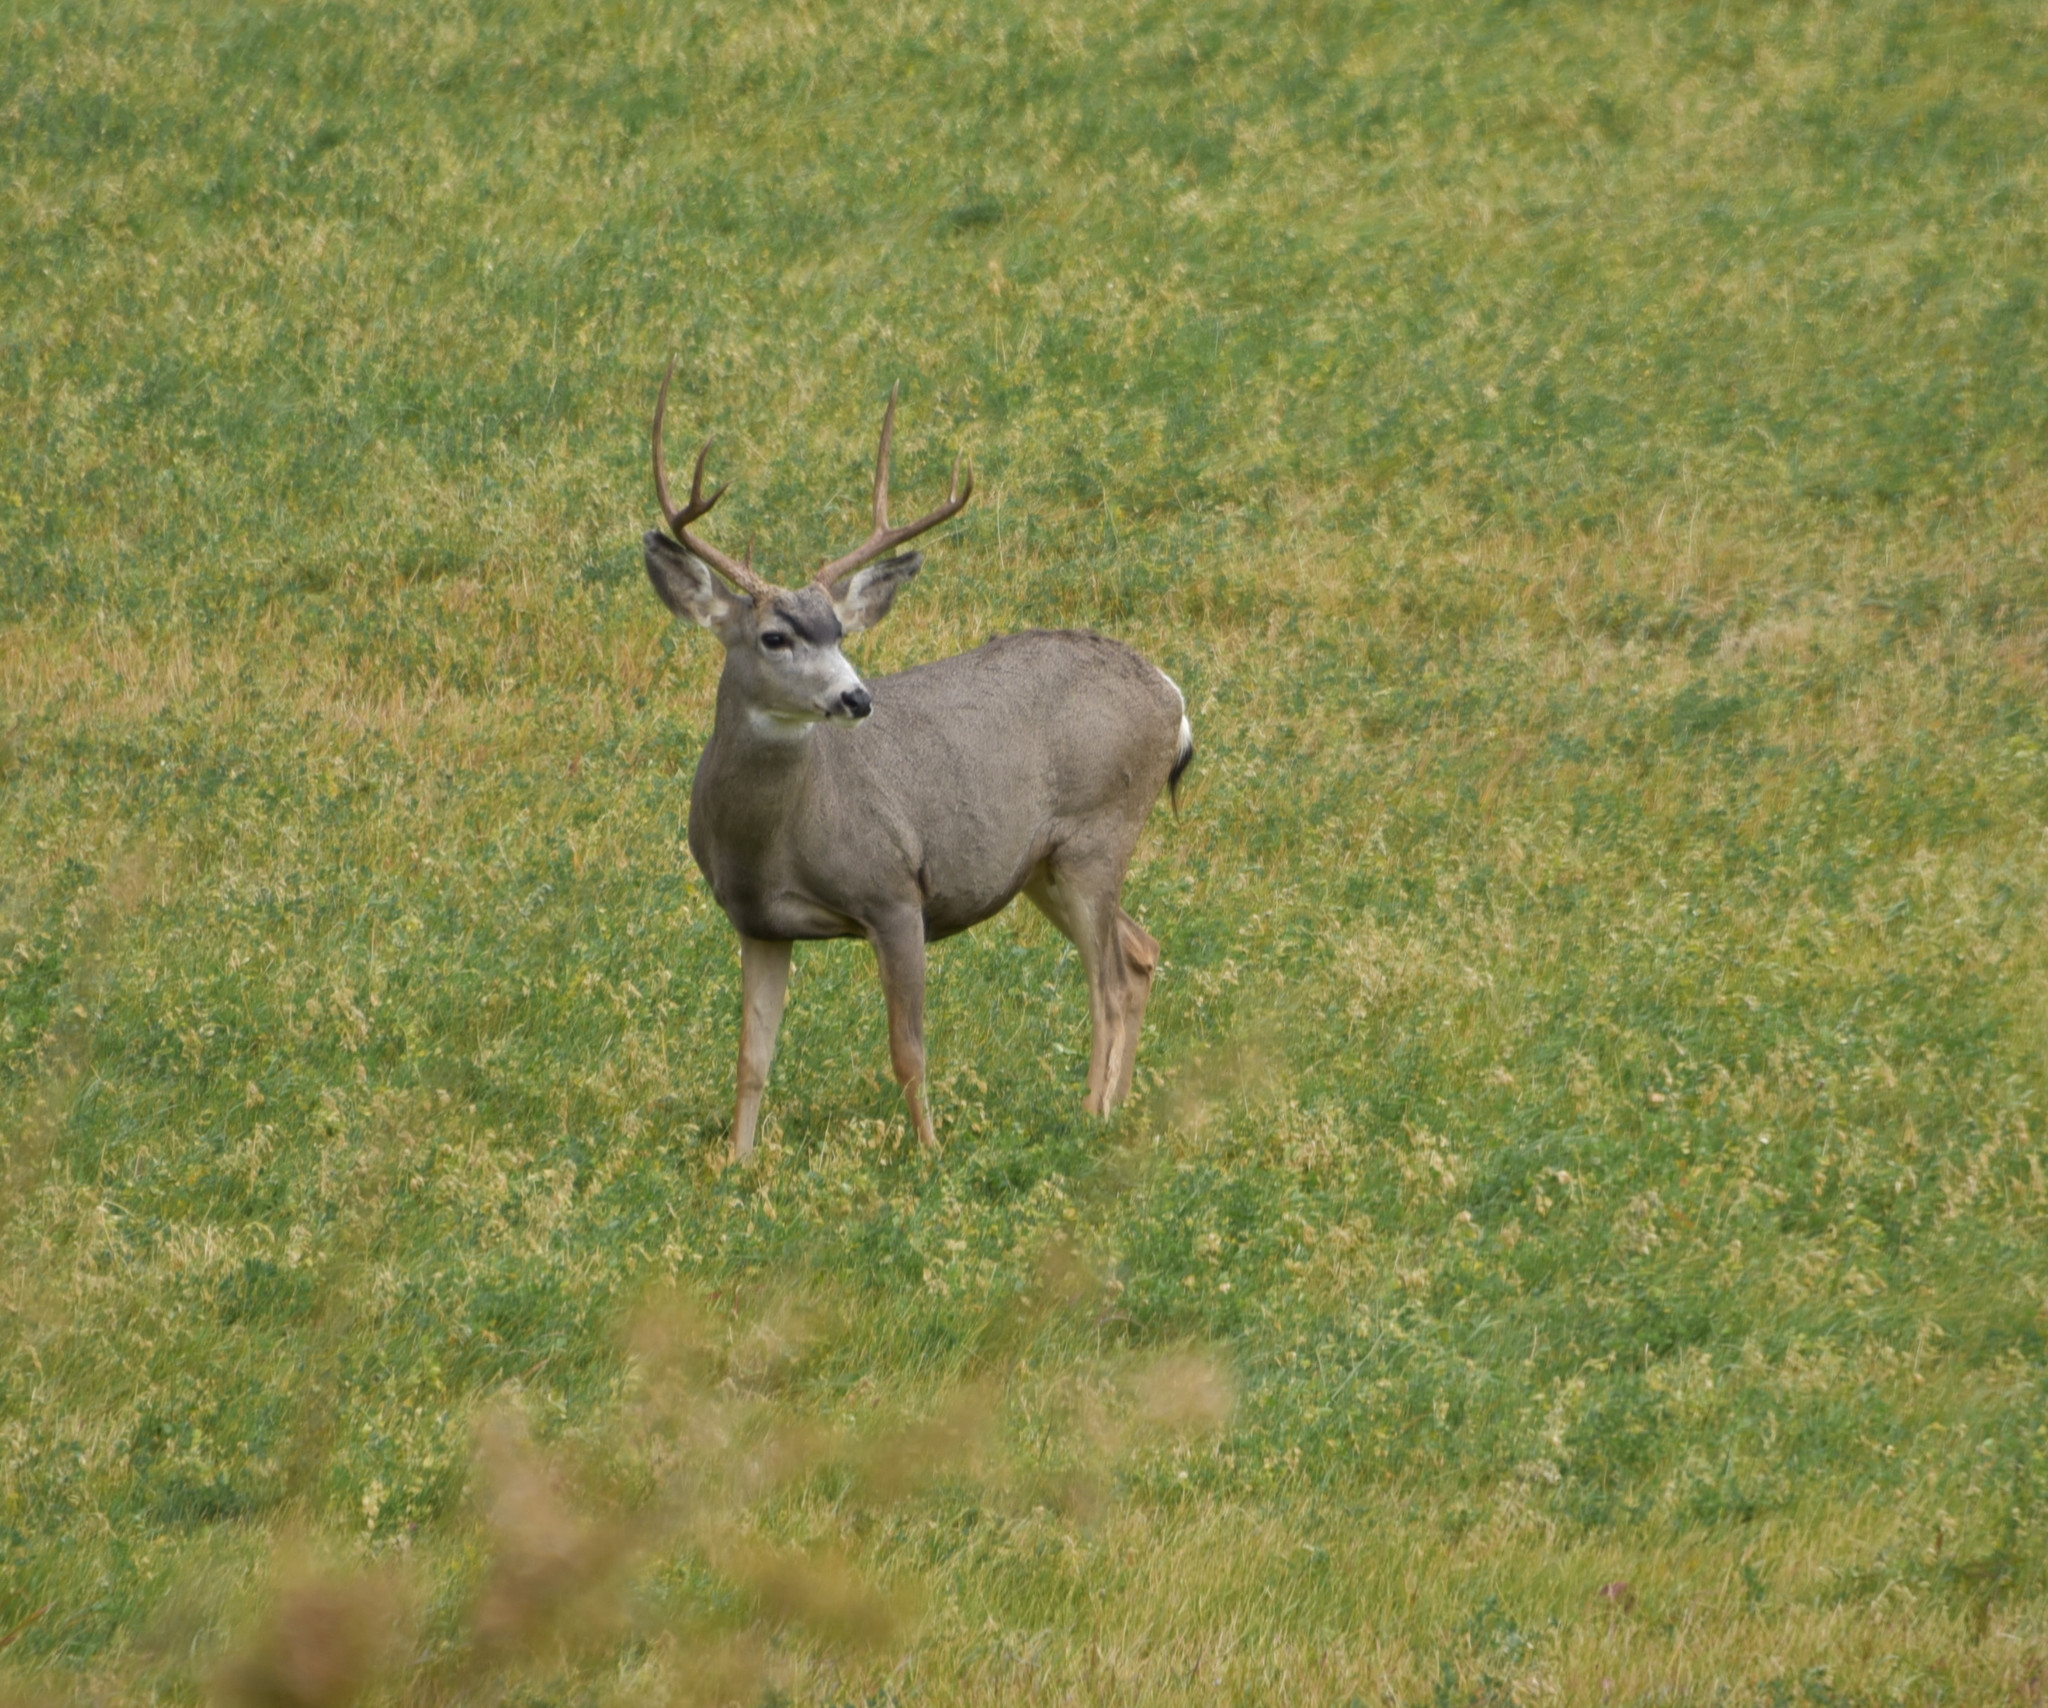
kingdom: Animalia
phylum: Chordata
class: Mammalia
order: Artiodactyla
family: Cervidae
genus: Odocoileus
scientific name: Odocoileus hemionus
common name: Mule deer
